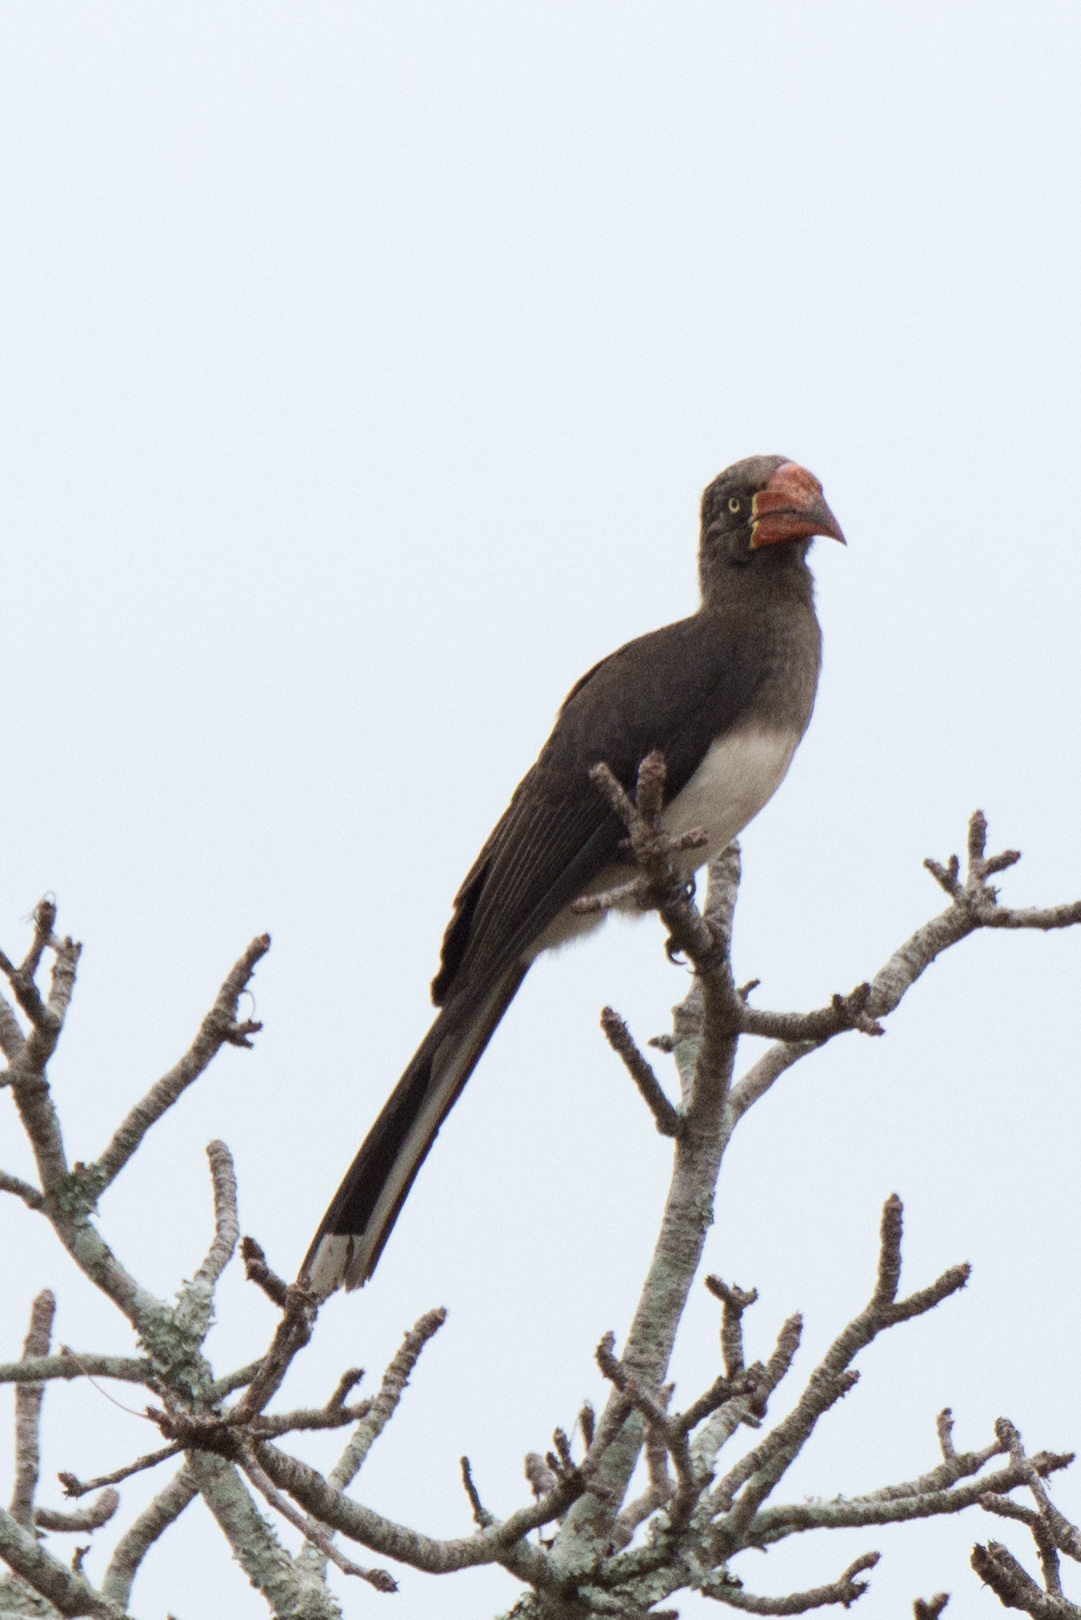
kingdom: Animalia
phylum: Chordata
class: Aves
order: Bucerotiformes
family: Bucerotidae
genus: Lophoceros
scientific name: Lophoceros alboterminatus
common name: Crowned hornbill
